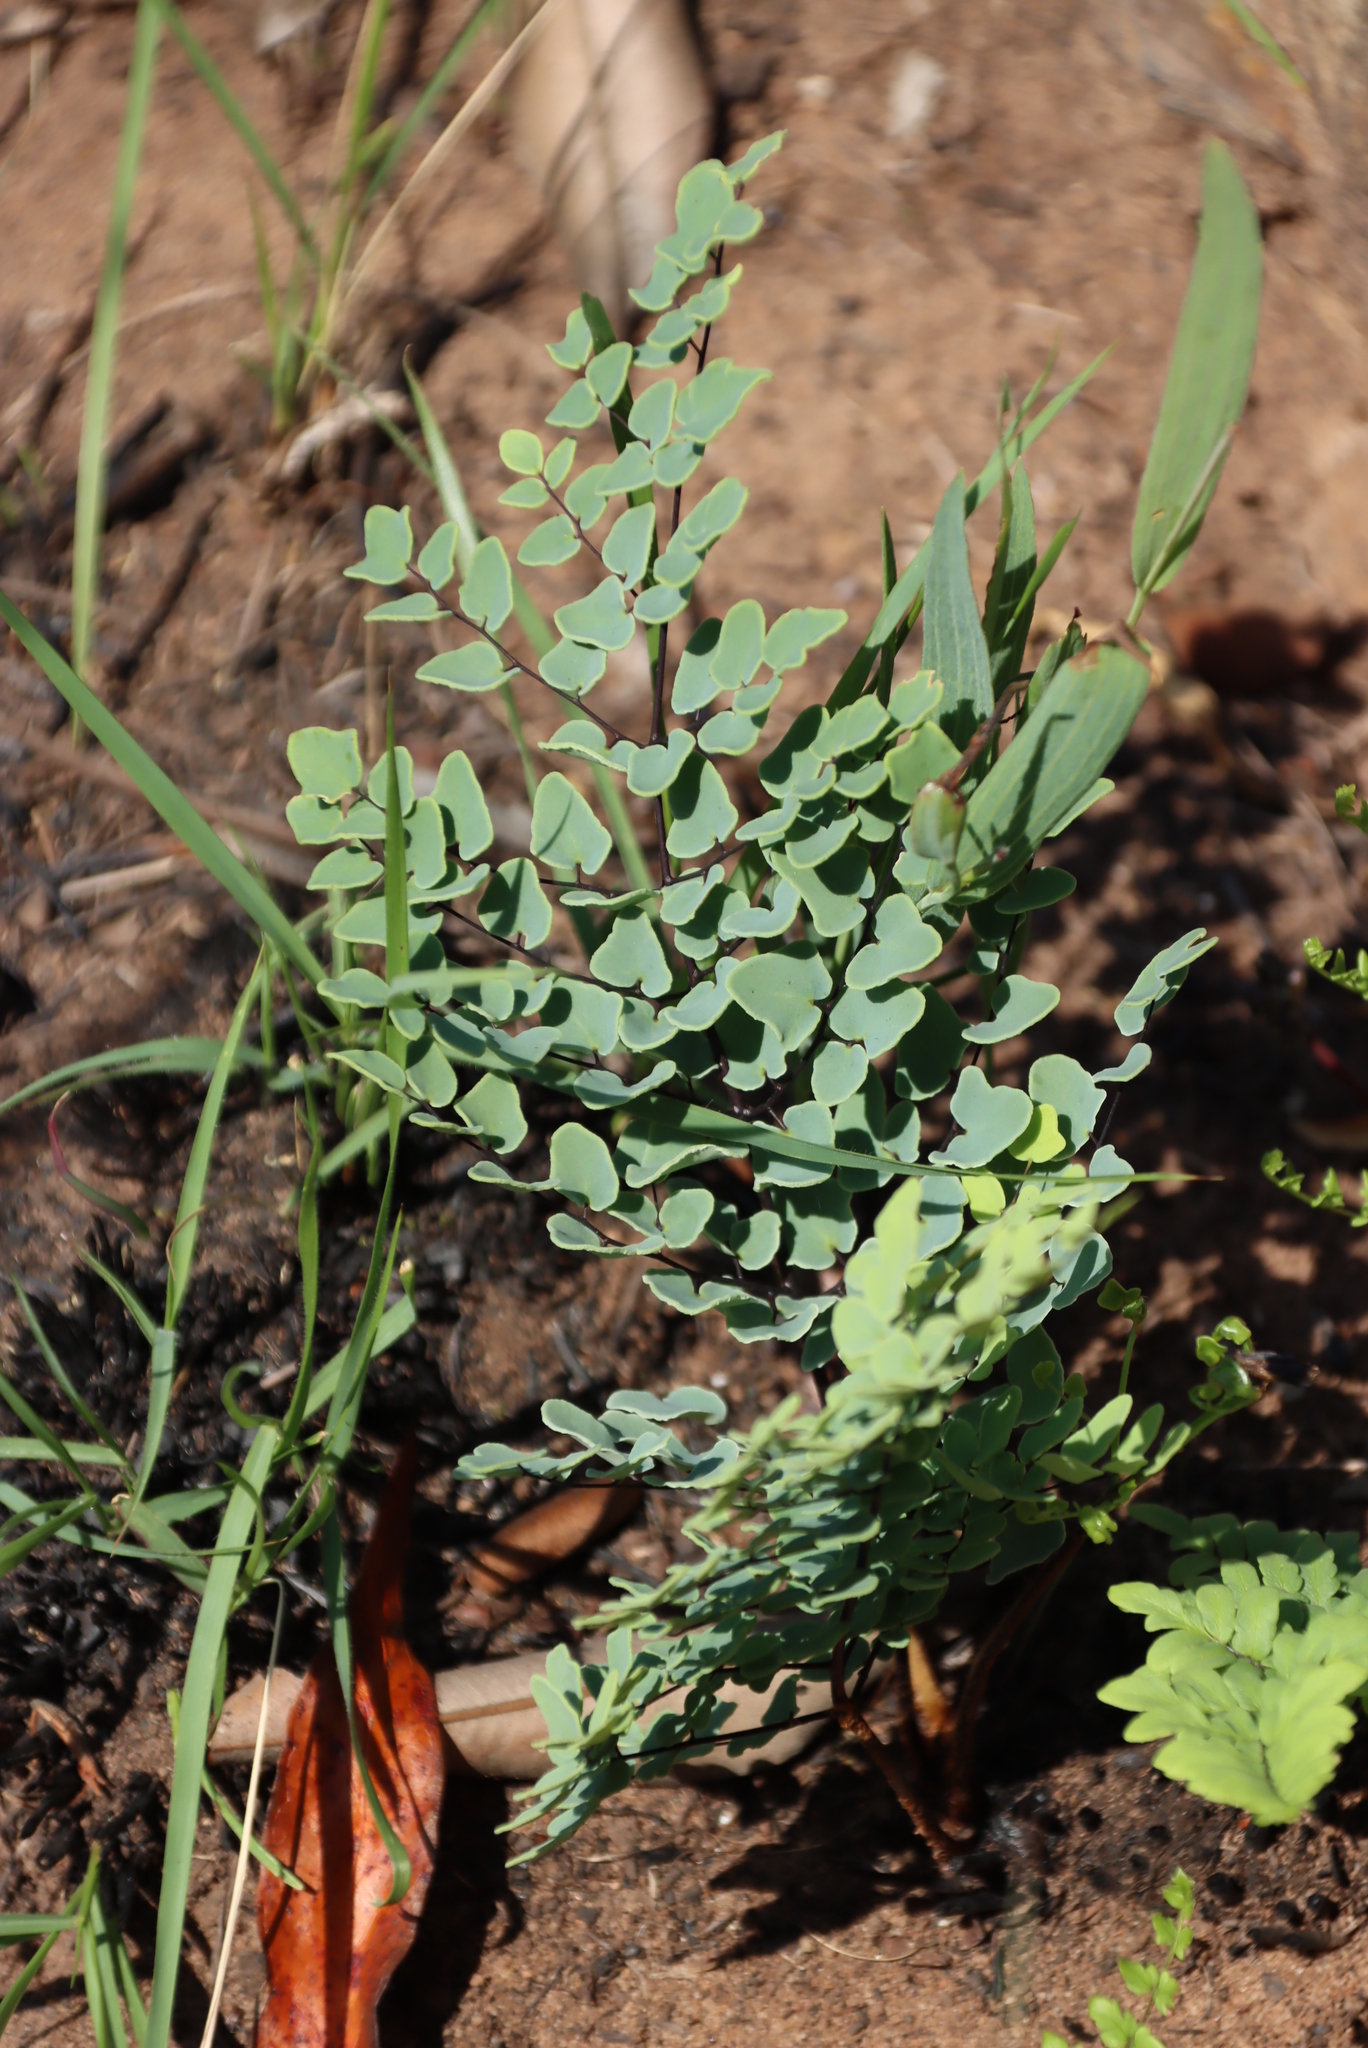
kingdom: Plantae
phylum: Tracheophyta
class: Polypodiopsida
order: Polypodiales
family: Pteridaceae
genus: Pellaea
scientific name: Pellaea calomelanos
